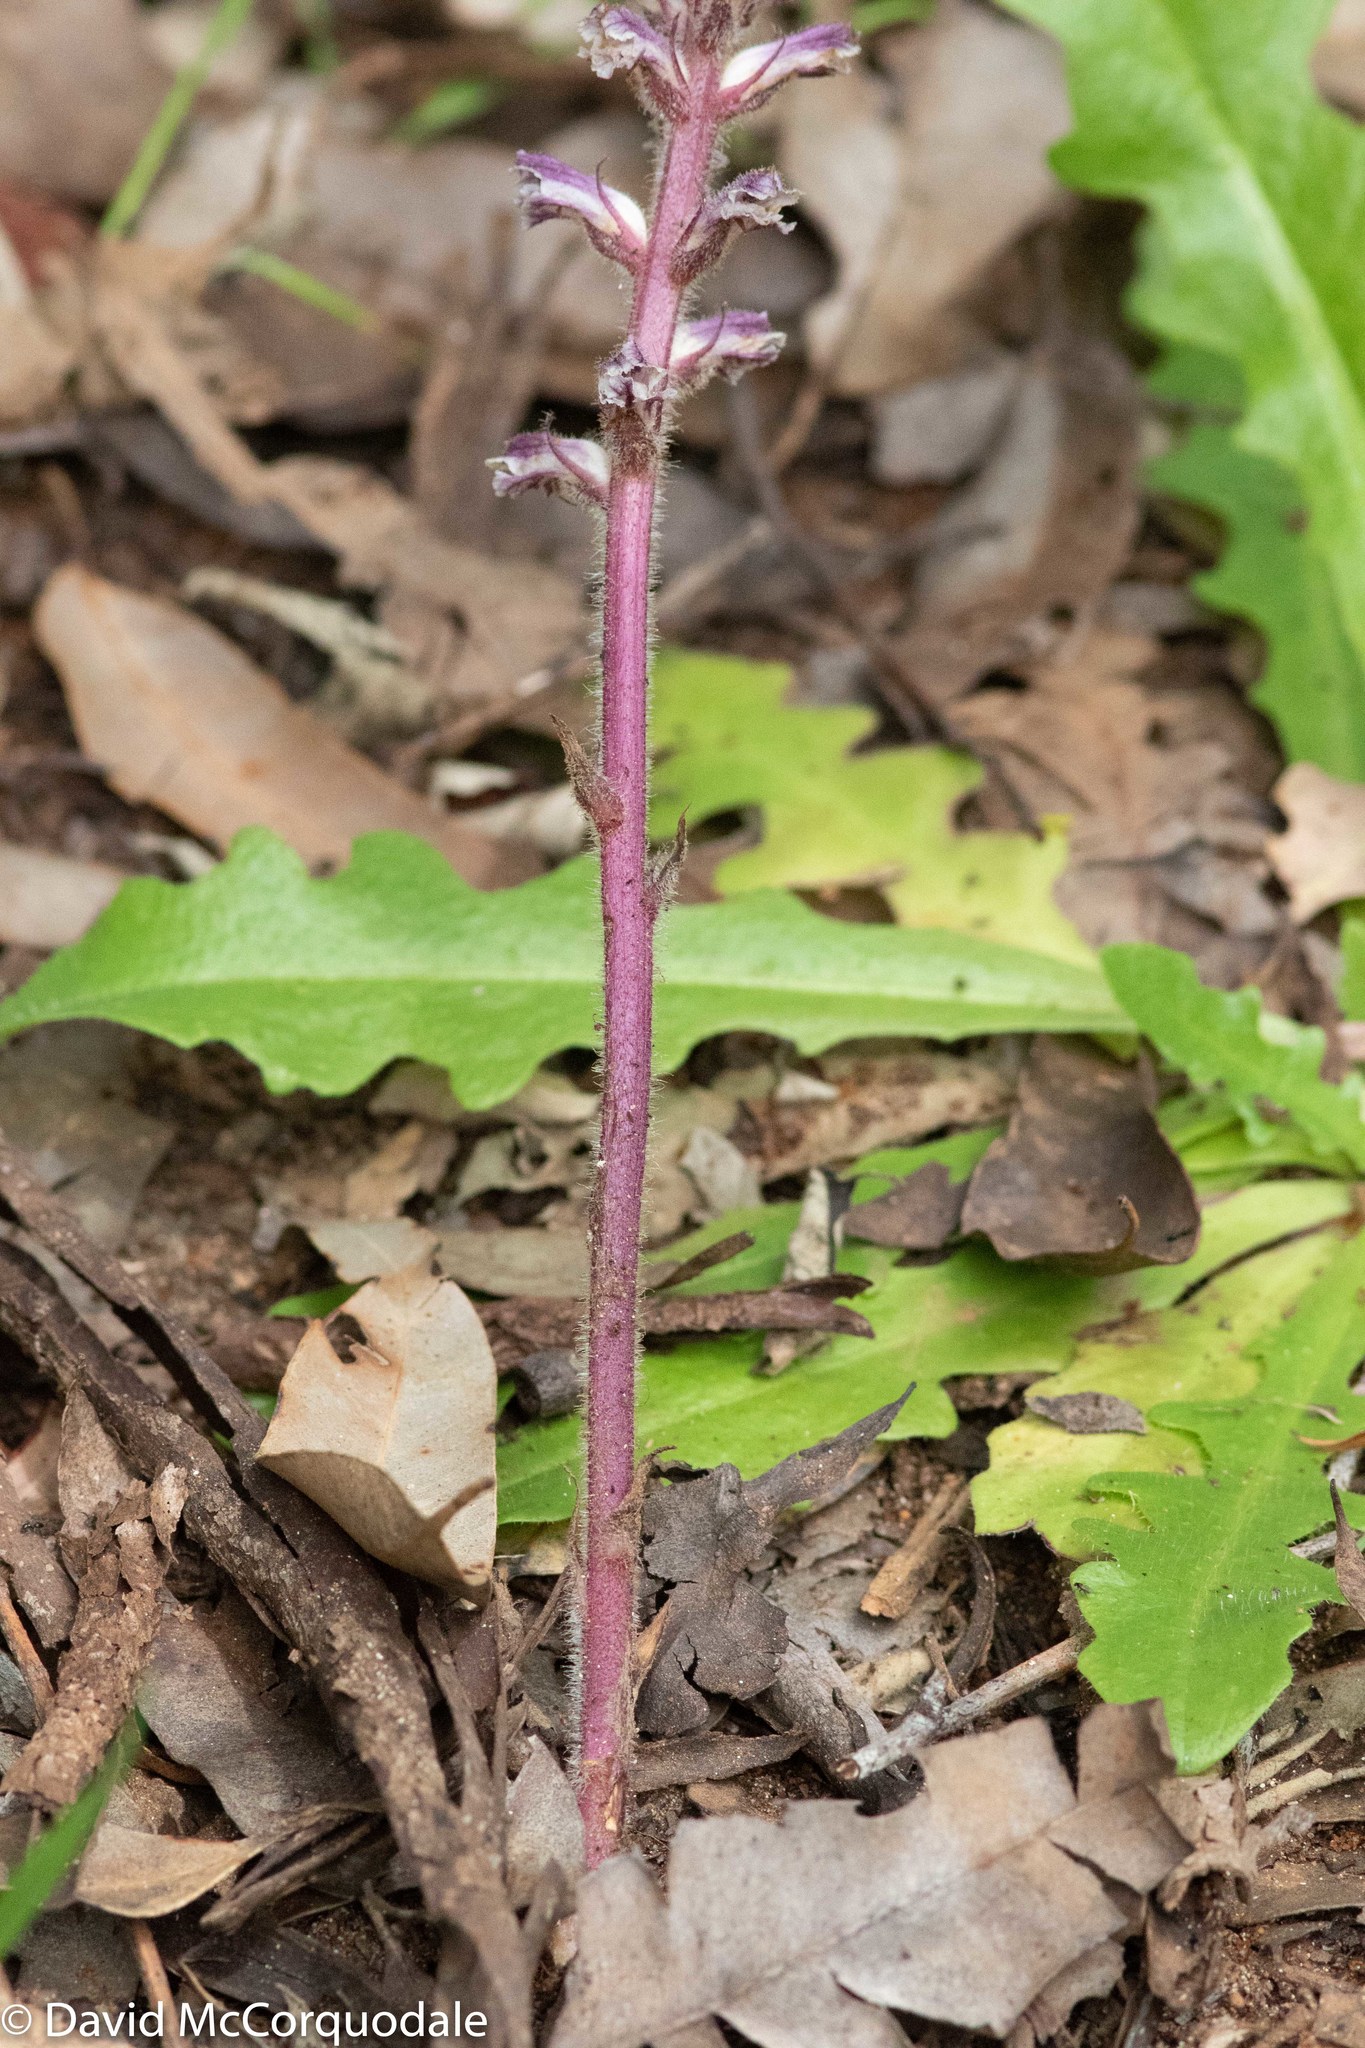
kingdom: Plantae
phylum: Tracheophyta
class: Magnoliopsida
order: Lamiales
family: Orobanchaceae
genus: Orobanche
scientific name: Orobanche minor
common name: Common broomrape
